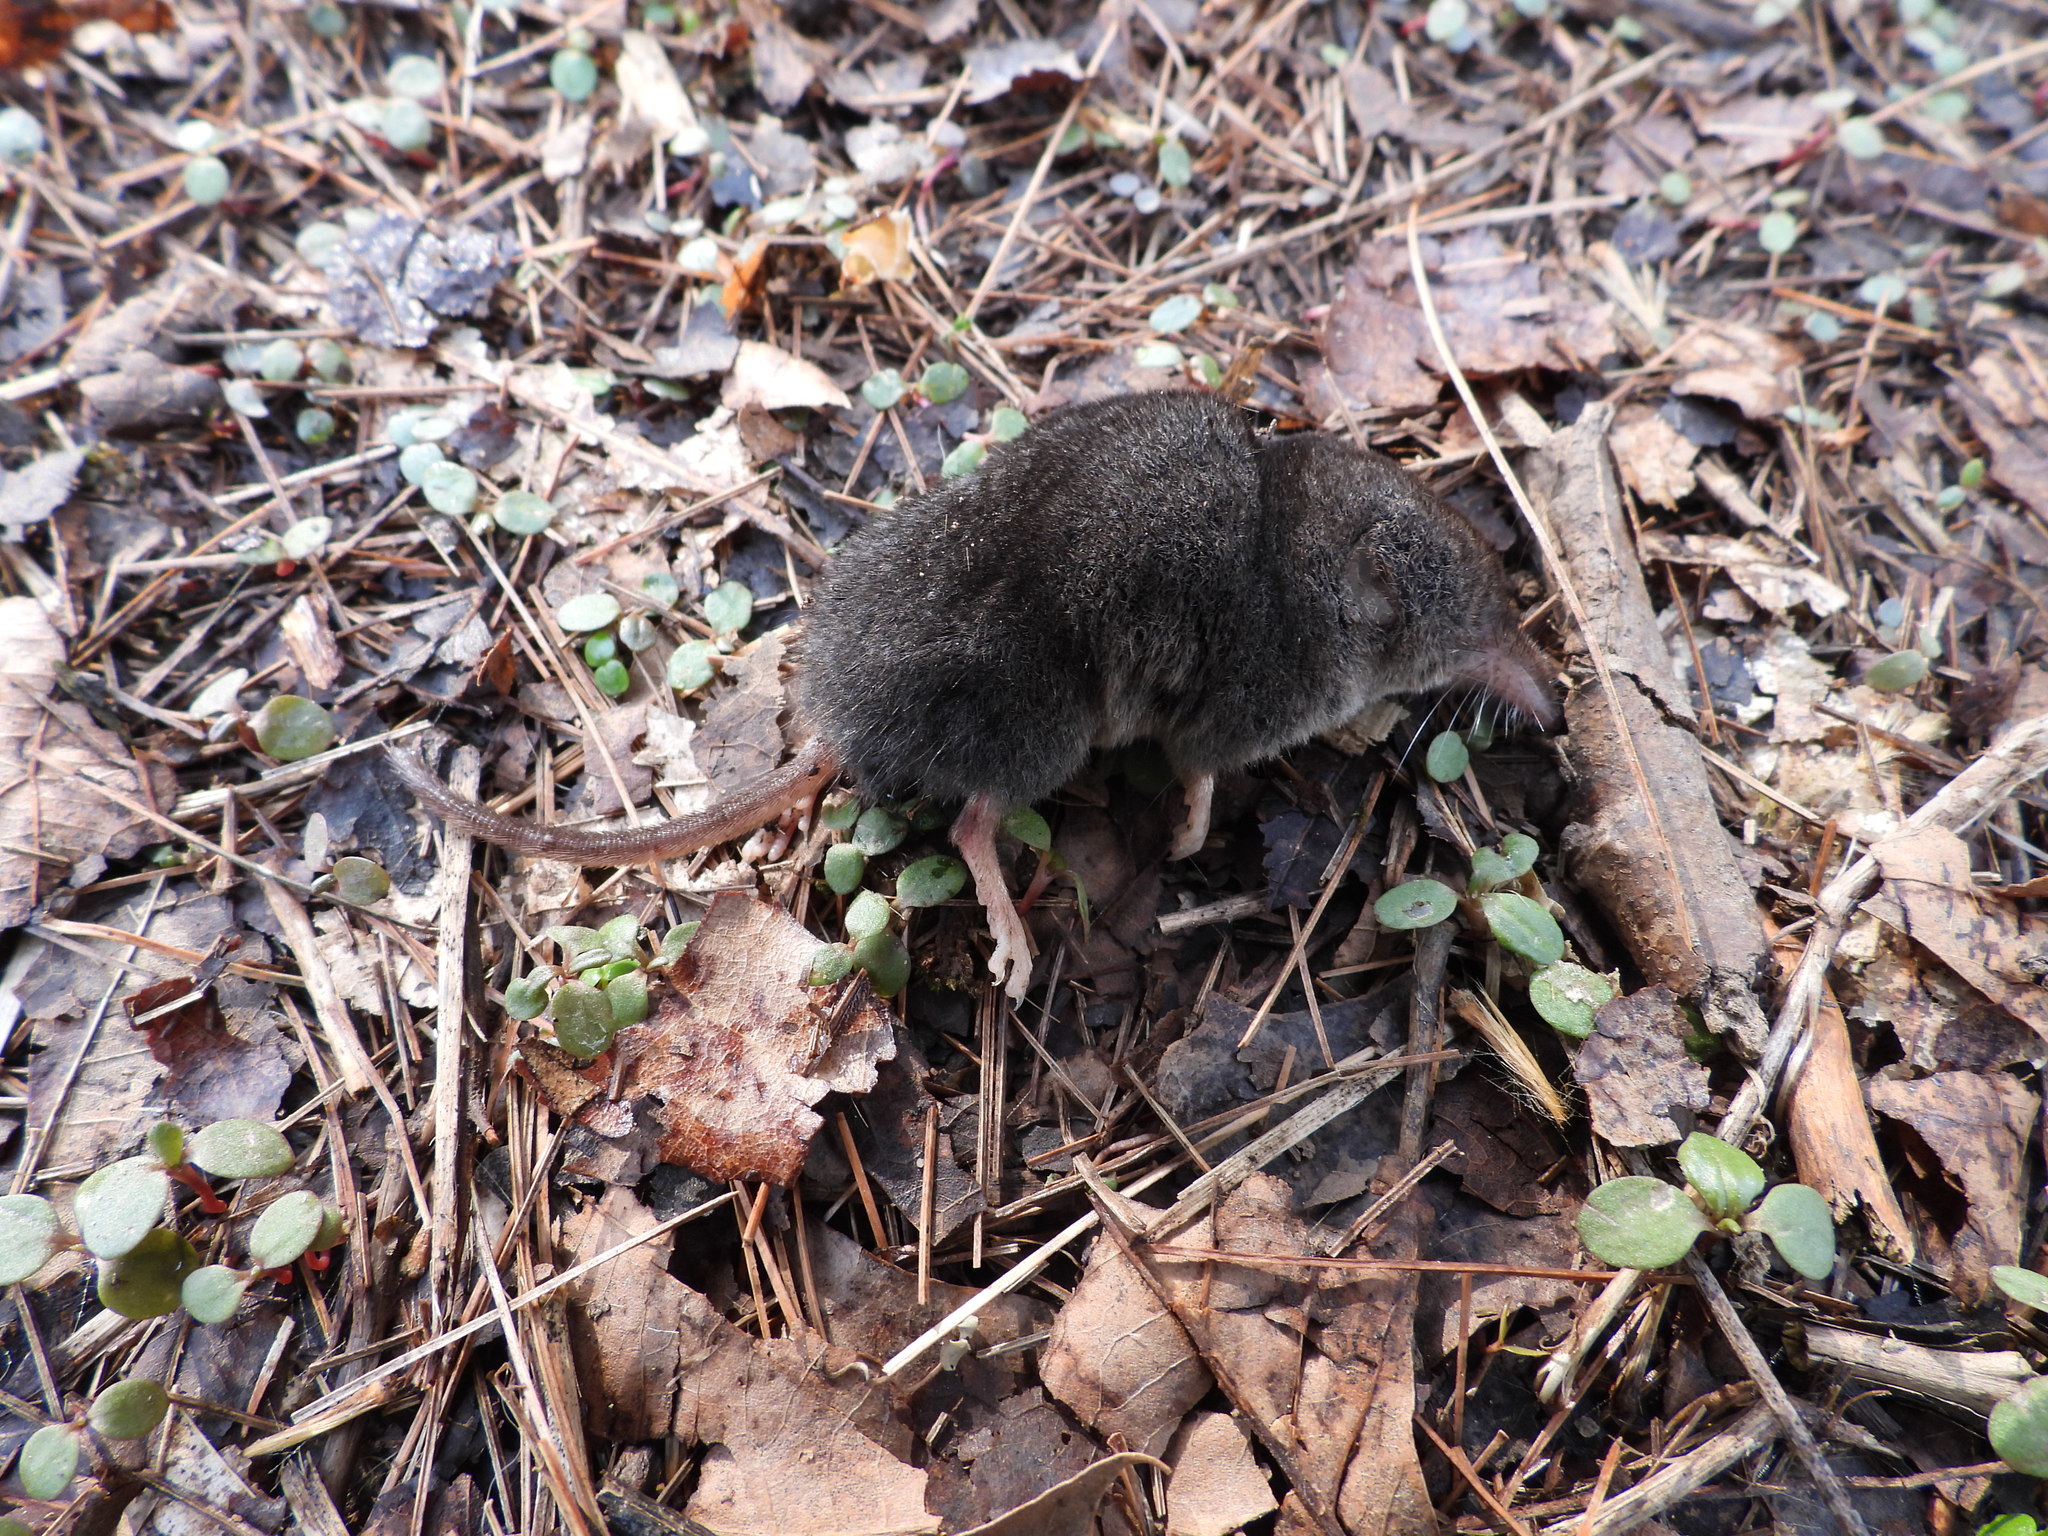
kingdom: Animalia
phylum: Chordata
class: Mammalia
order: Soricomorpha
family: Soricidae
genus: Sorex
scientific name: Sorex fumeus
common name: Smoky shrew
